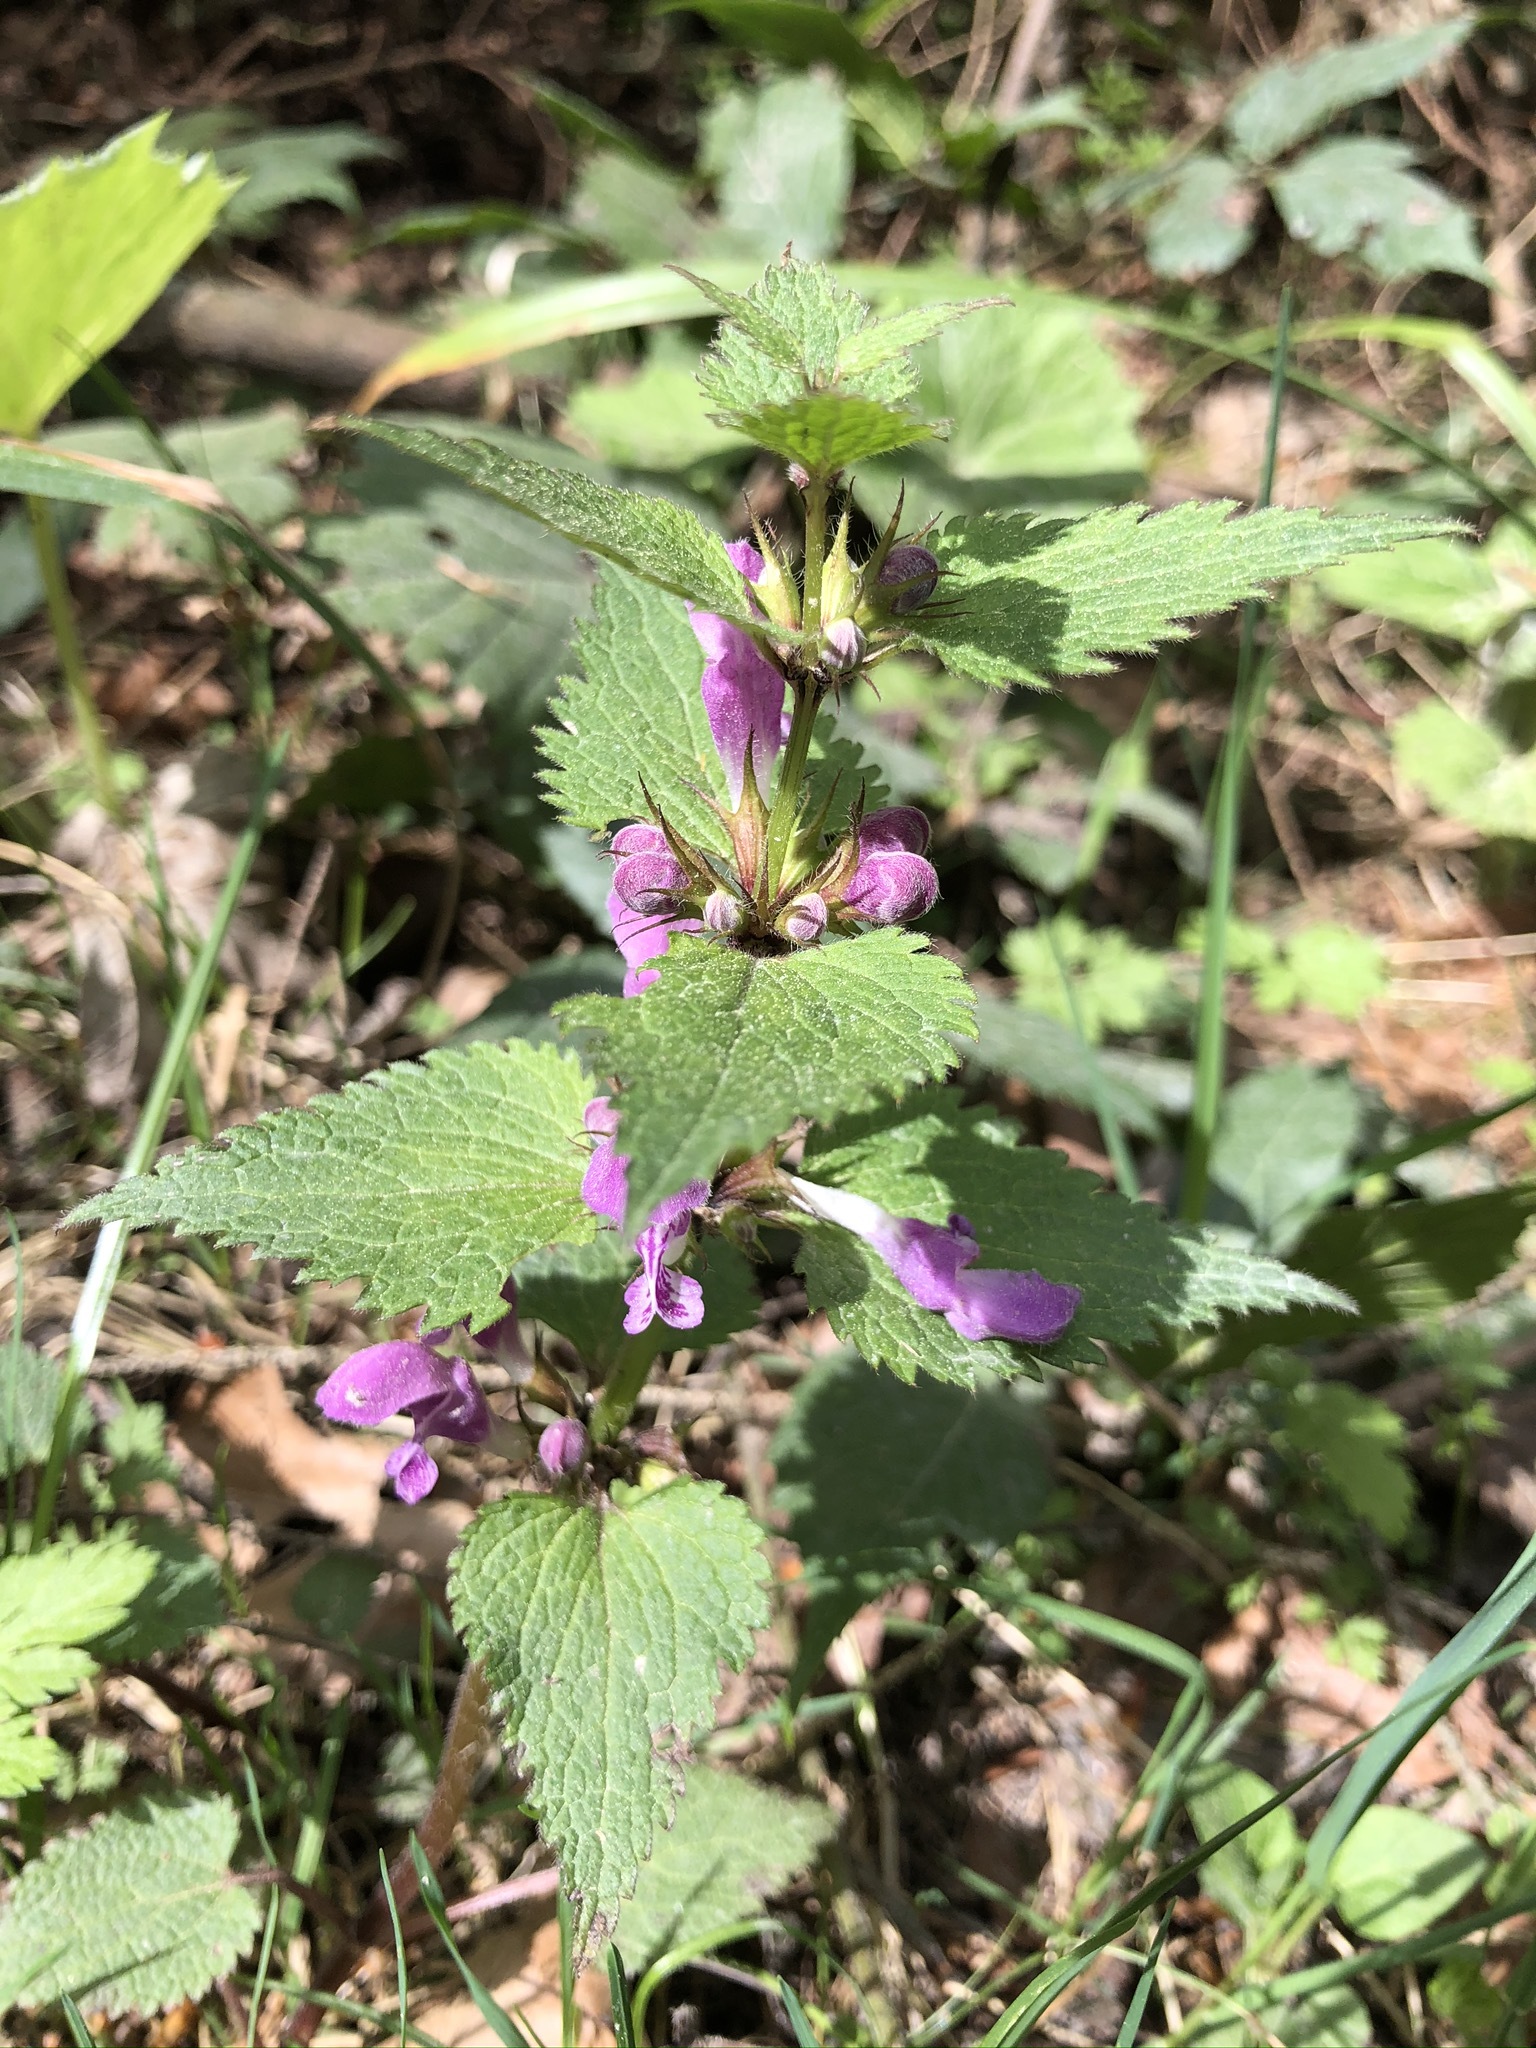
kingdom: Plantae
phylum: Tracheophyta
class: Magnoliopsida
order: Lamiales
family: Lamiaceae
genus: Lamium
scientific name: Lamium maculatum
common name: Spotted dead-nettle
